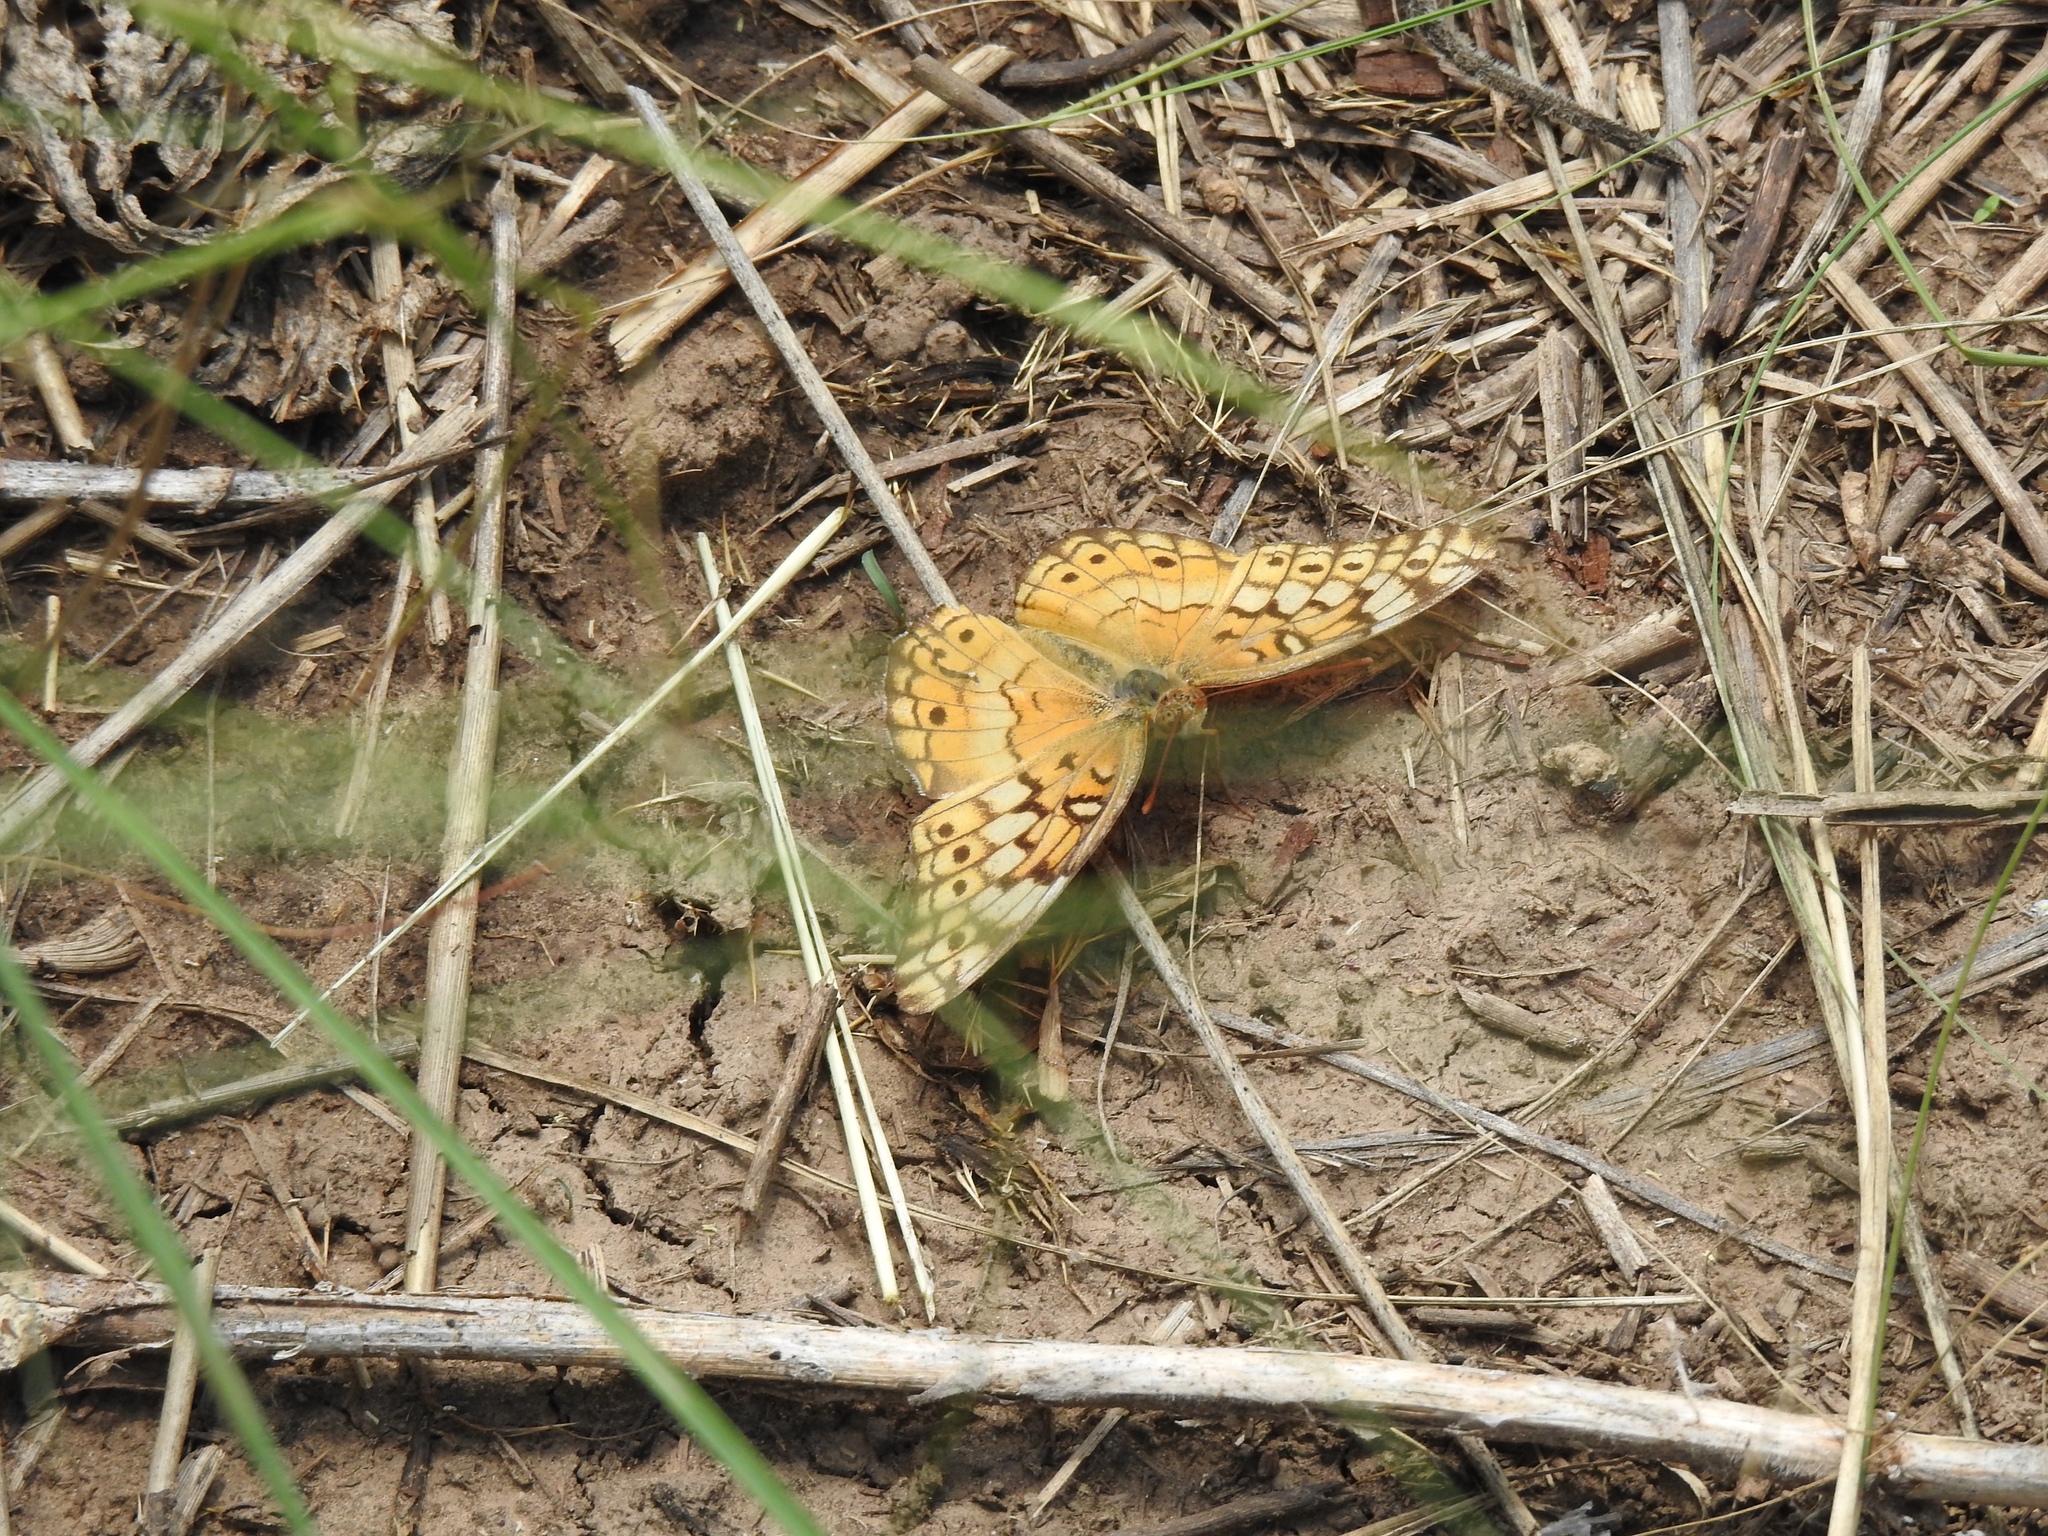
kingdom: Animalia
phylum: Arthropoda
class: Insecta
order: Lepidoptera
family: Nymphalidae
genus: Euptoieta
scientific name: Euptoieta claudia
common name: Variegated fritillary
